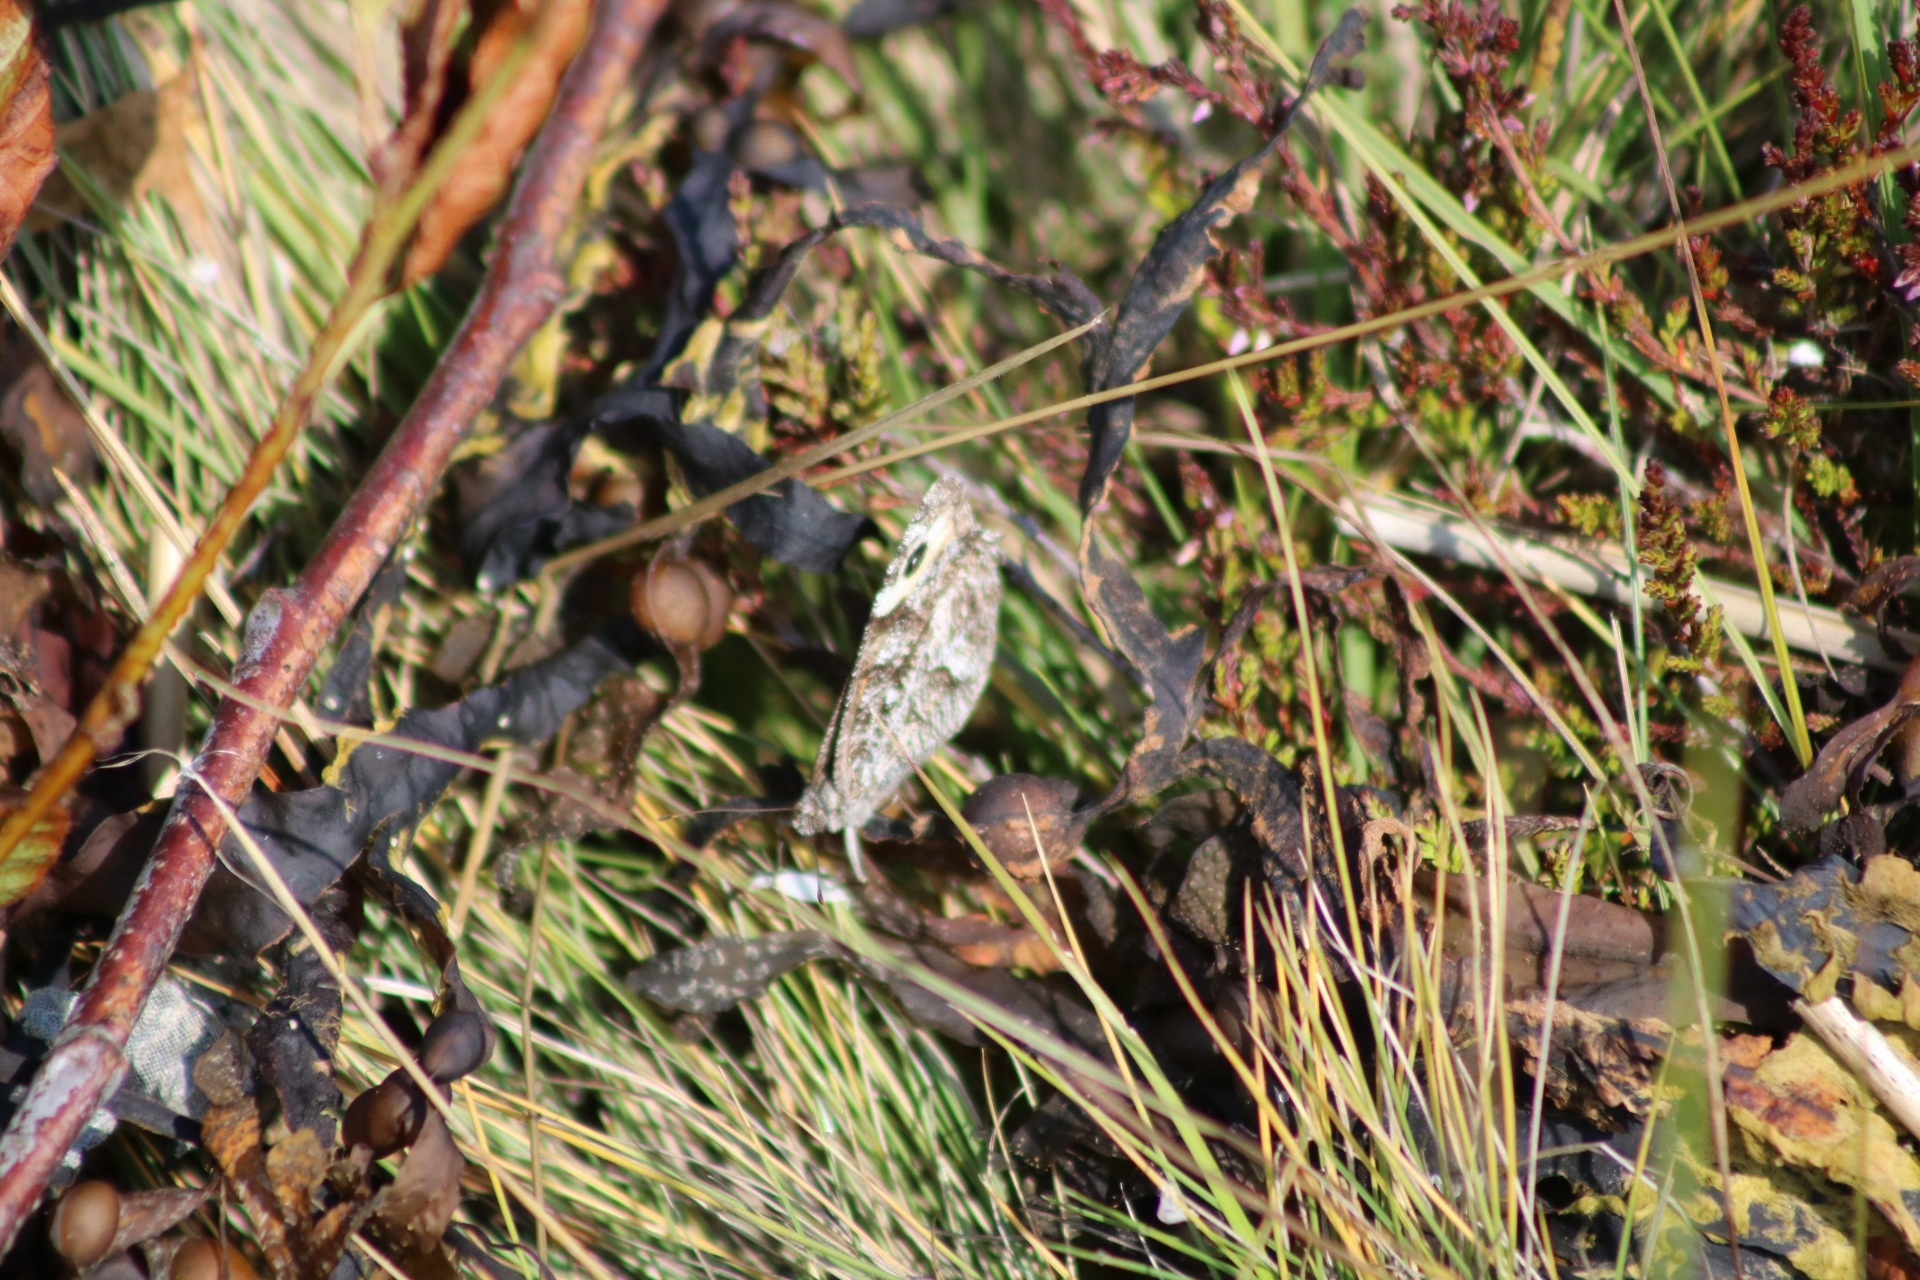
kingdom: Animalia
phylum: Arthropoda
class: Insecta
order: Lepidoptera
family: Nymphalidae
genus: Hipparchia
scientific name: Hipparchia semele
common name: Grayling
